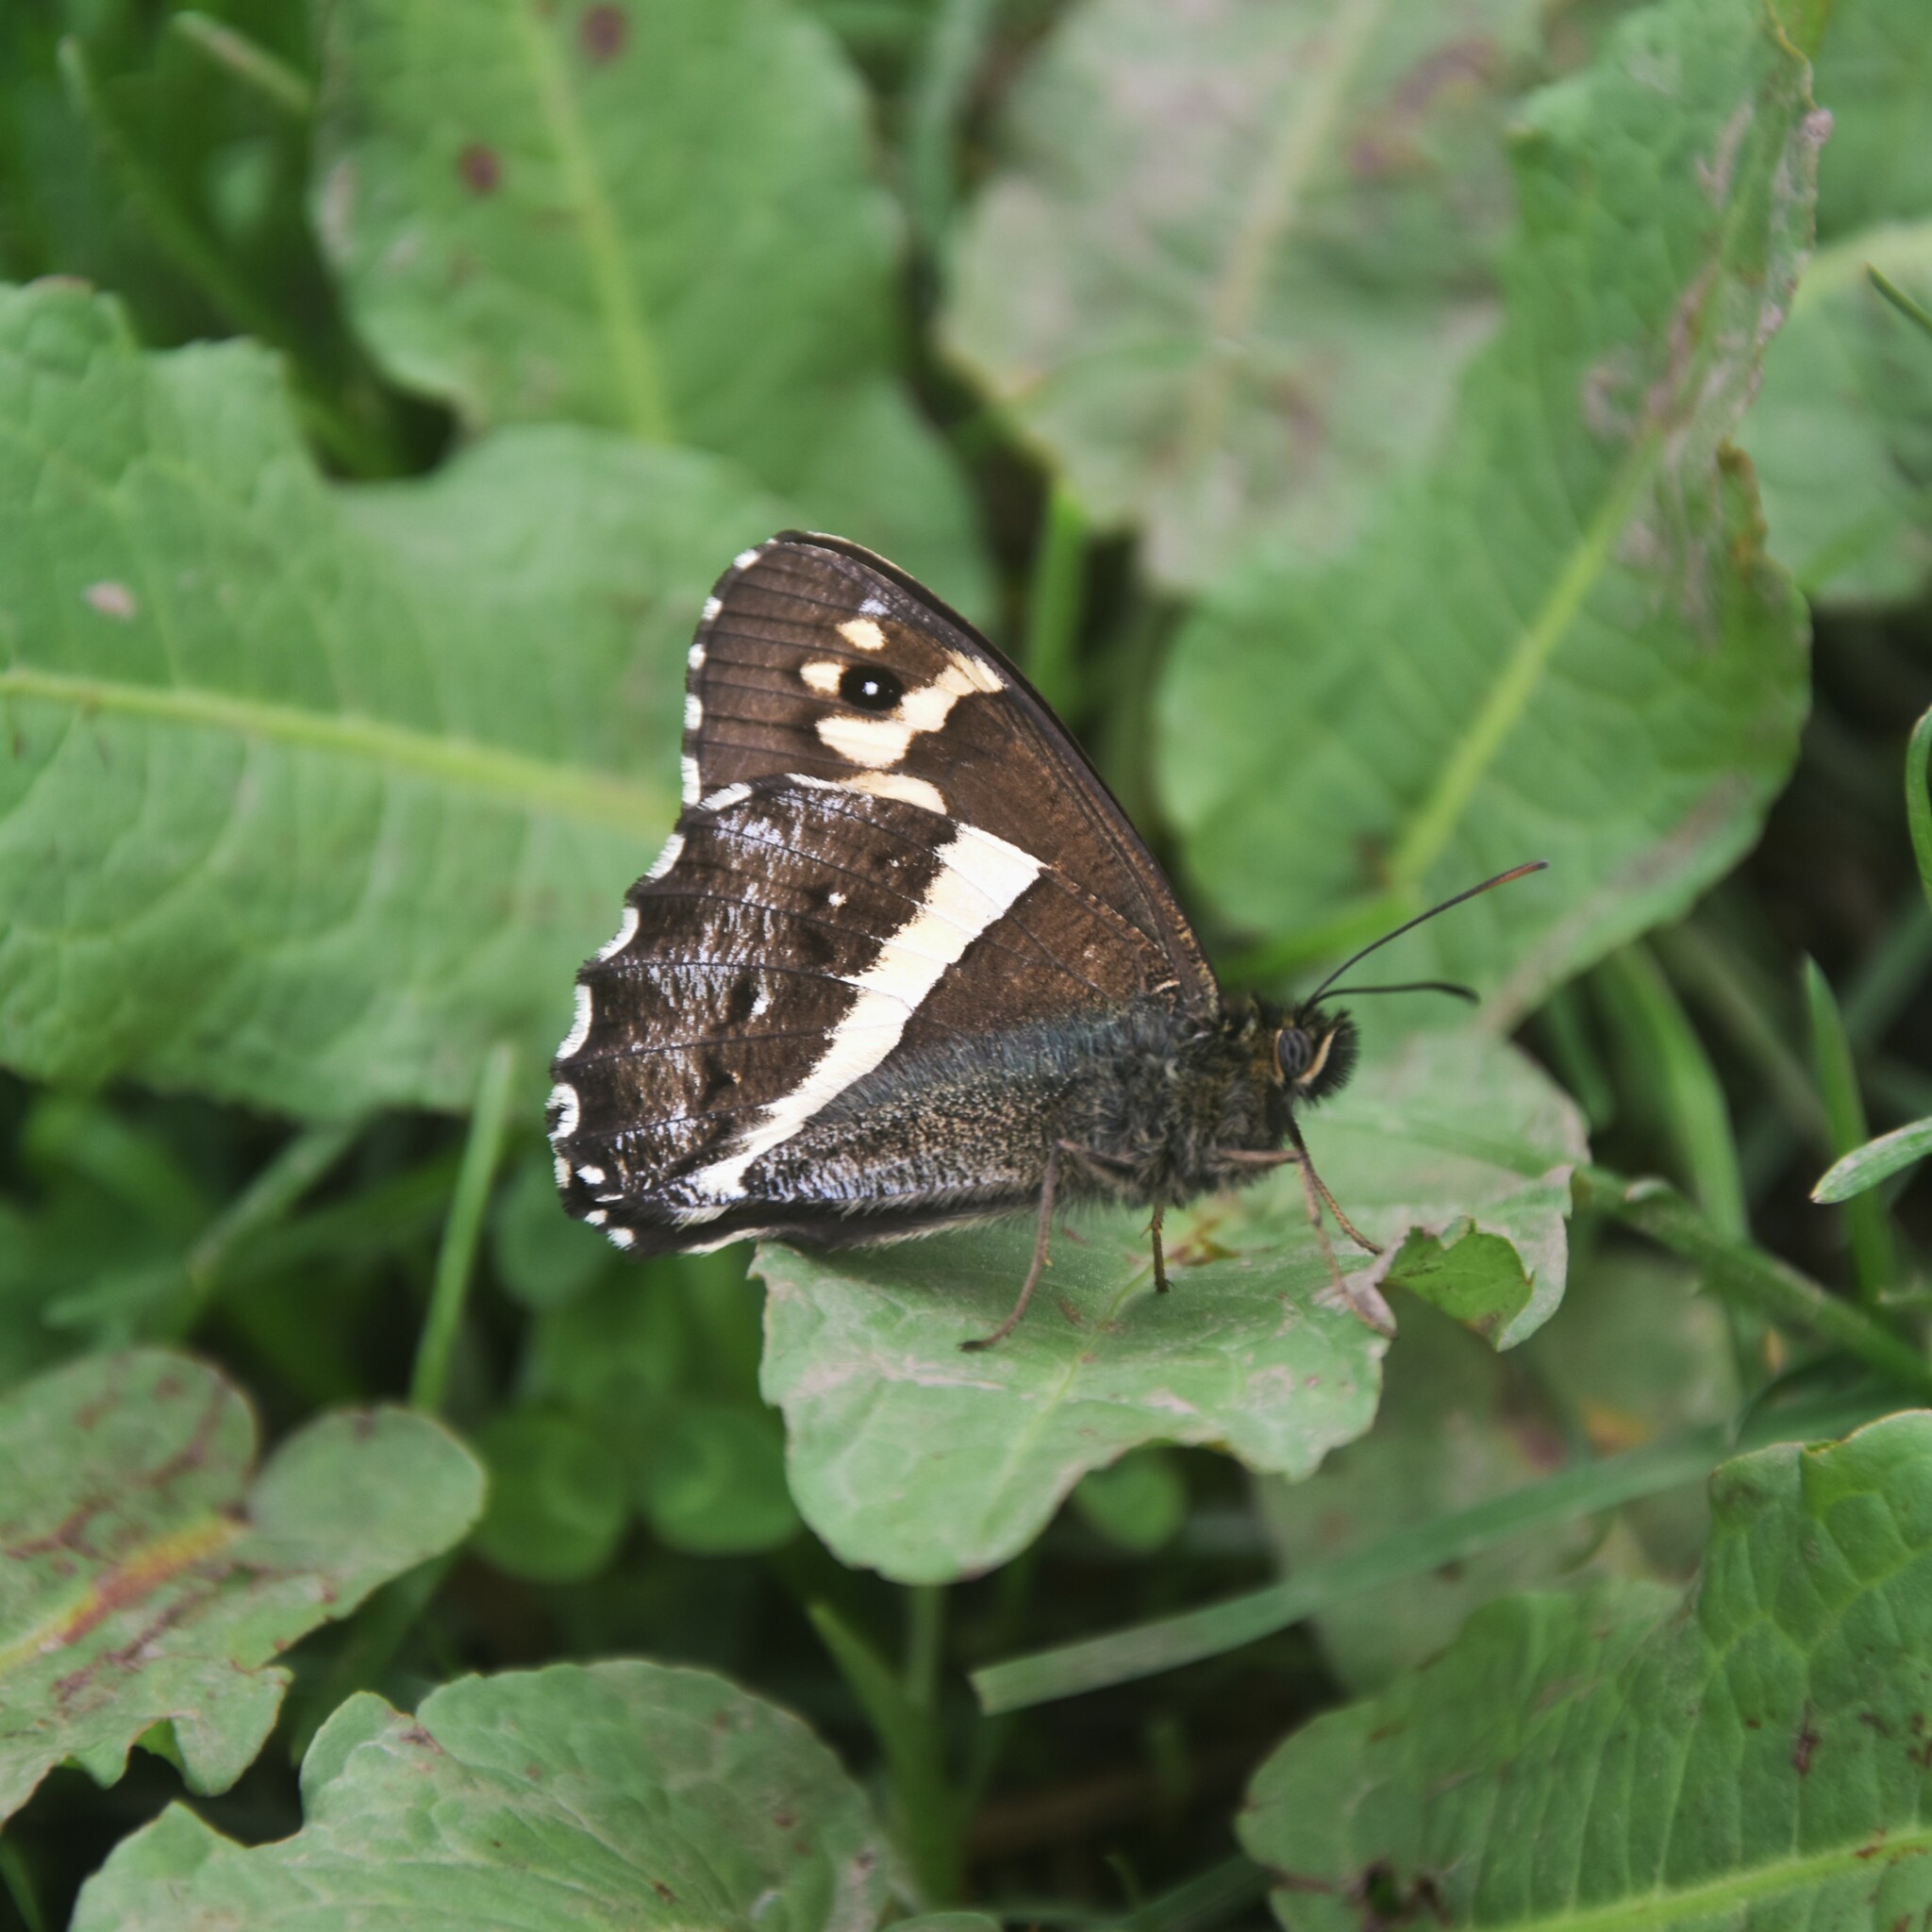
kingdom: Animalia
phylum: Arthropoda
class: Insecta
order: Lepidoptera
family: Nymphalidae
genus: Satyrus
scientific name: Satyrus Aulocera swaha
